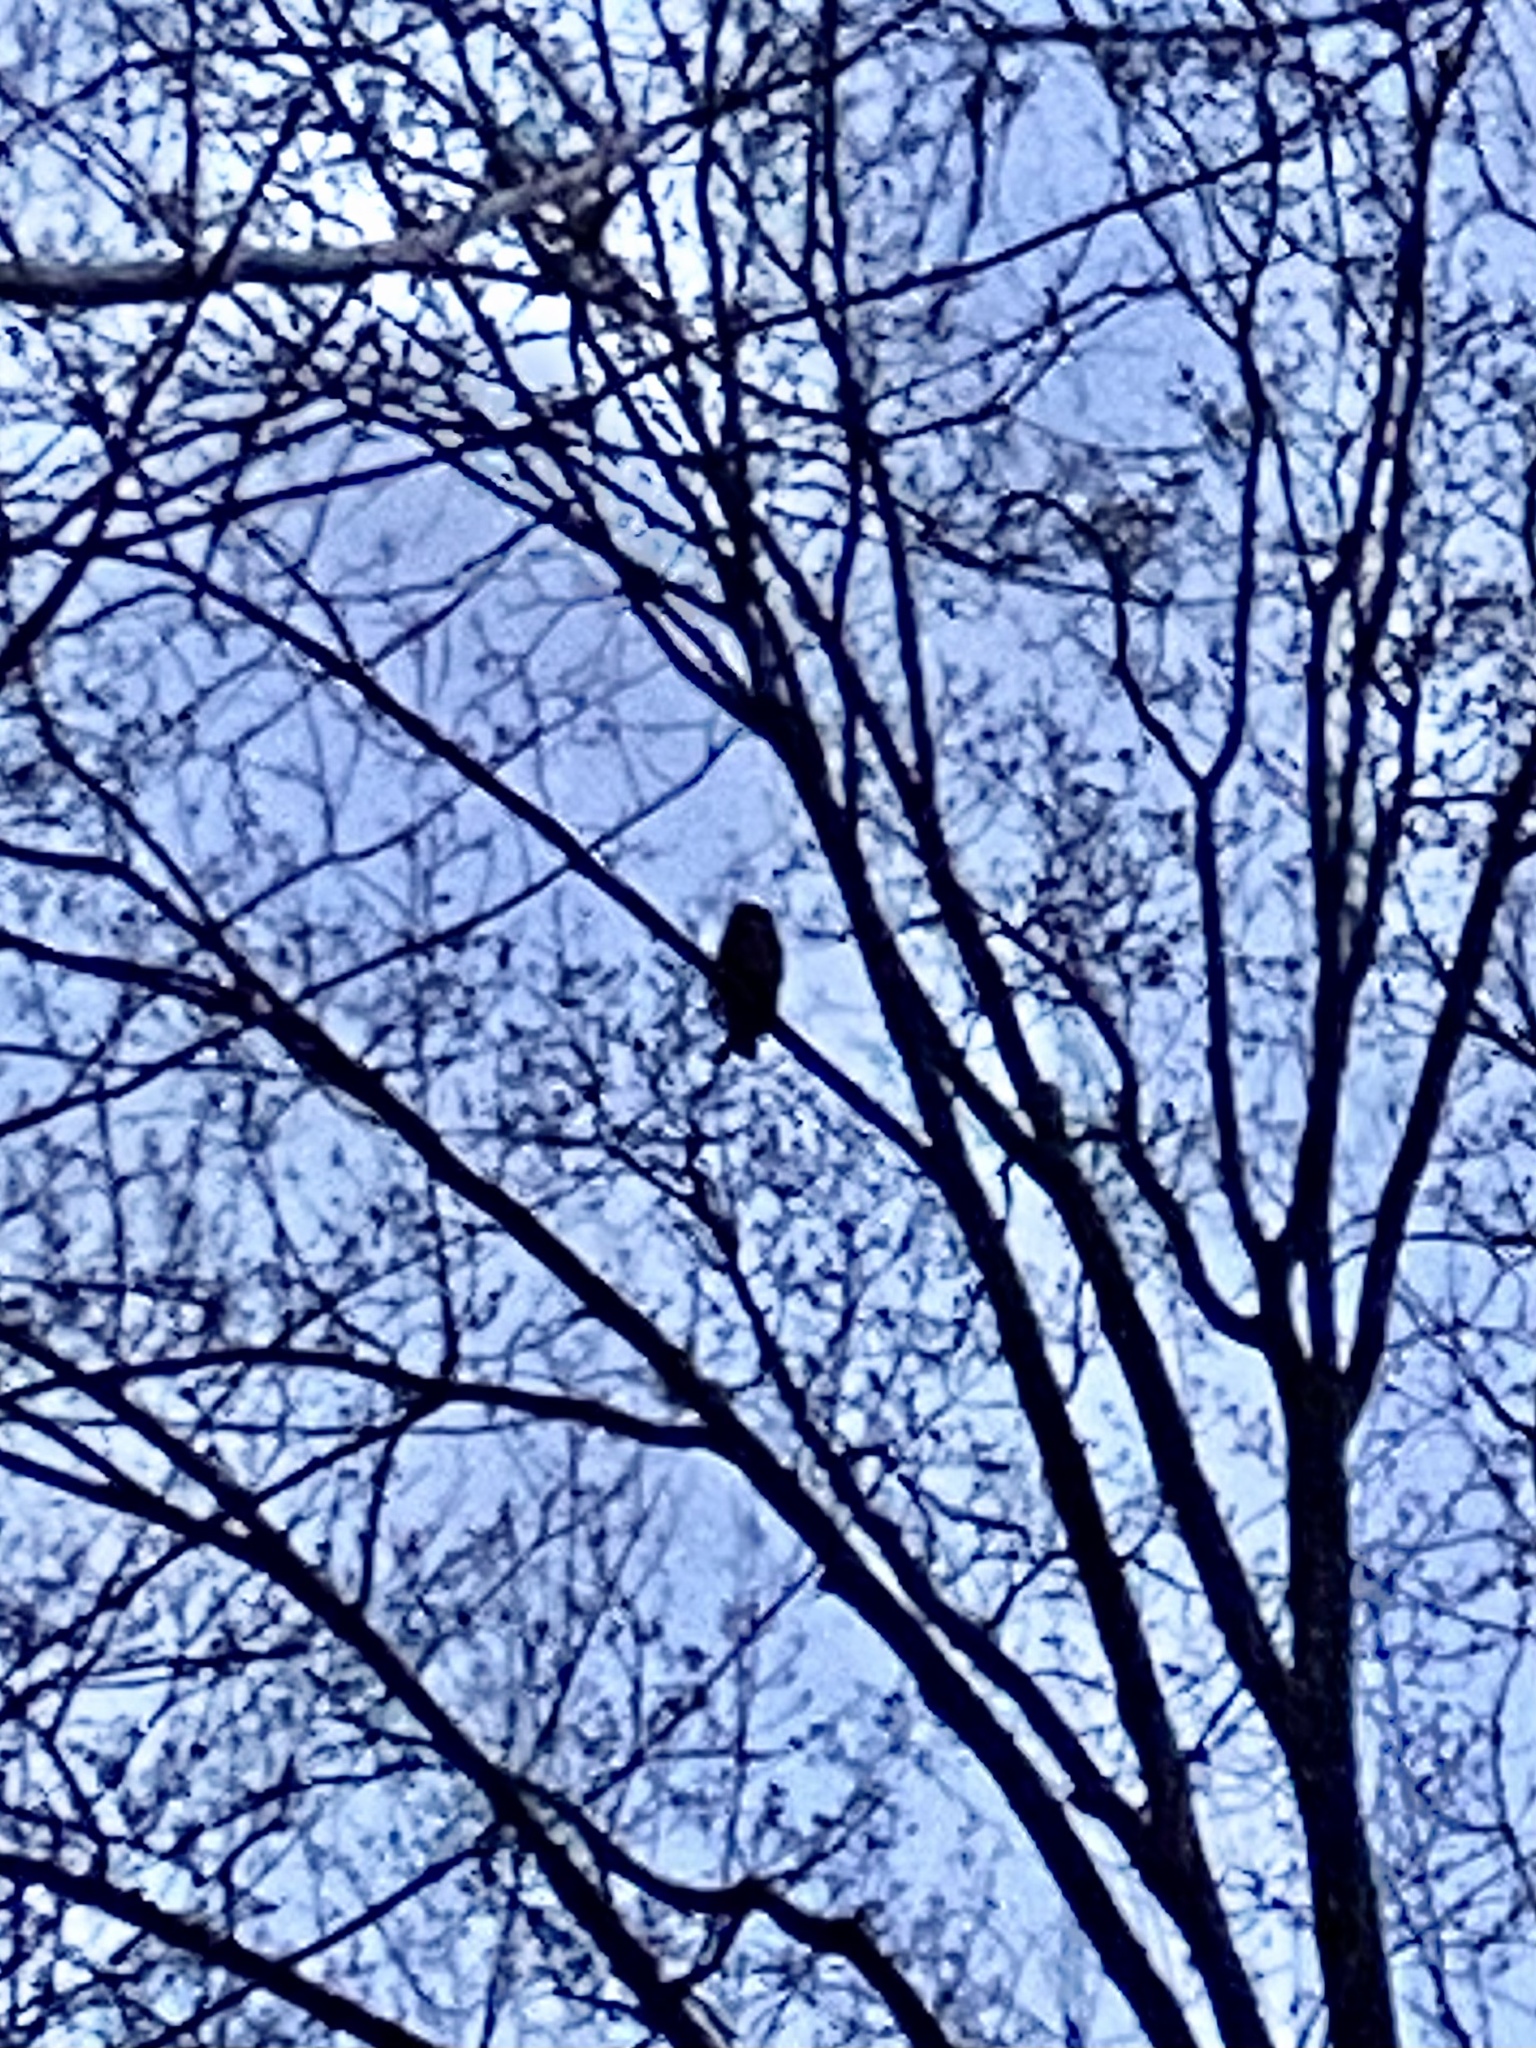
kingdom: Animalia
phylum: Chordata
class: Aves
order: Strigiformes
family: Strigidae
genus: Bubo
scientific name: Bubo virginianus
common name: Great horned owl
